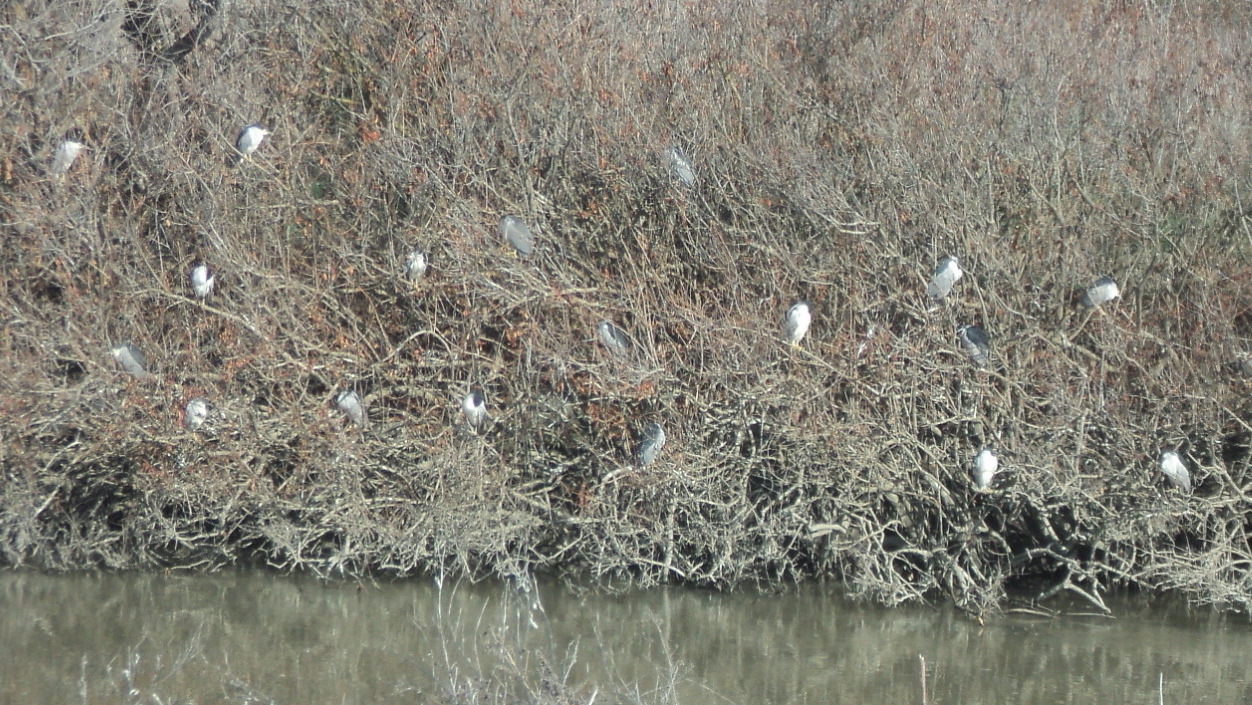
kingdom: Animalia
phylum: Chordata
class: Aves
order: Pelecaniformes
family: Ardeidae
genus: Nycticorax
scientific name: Nycticorax nycticorax
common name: Black-crowned night heron
